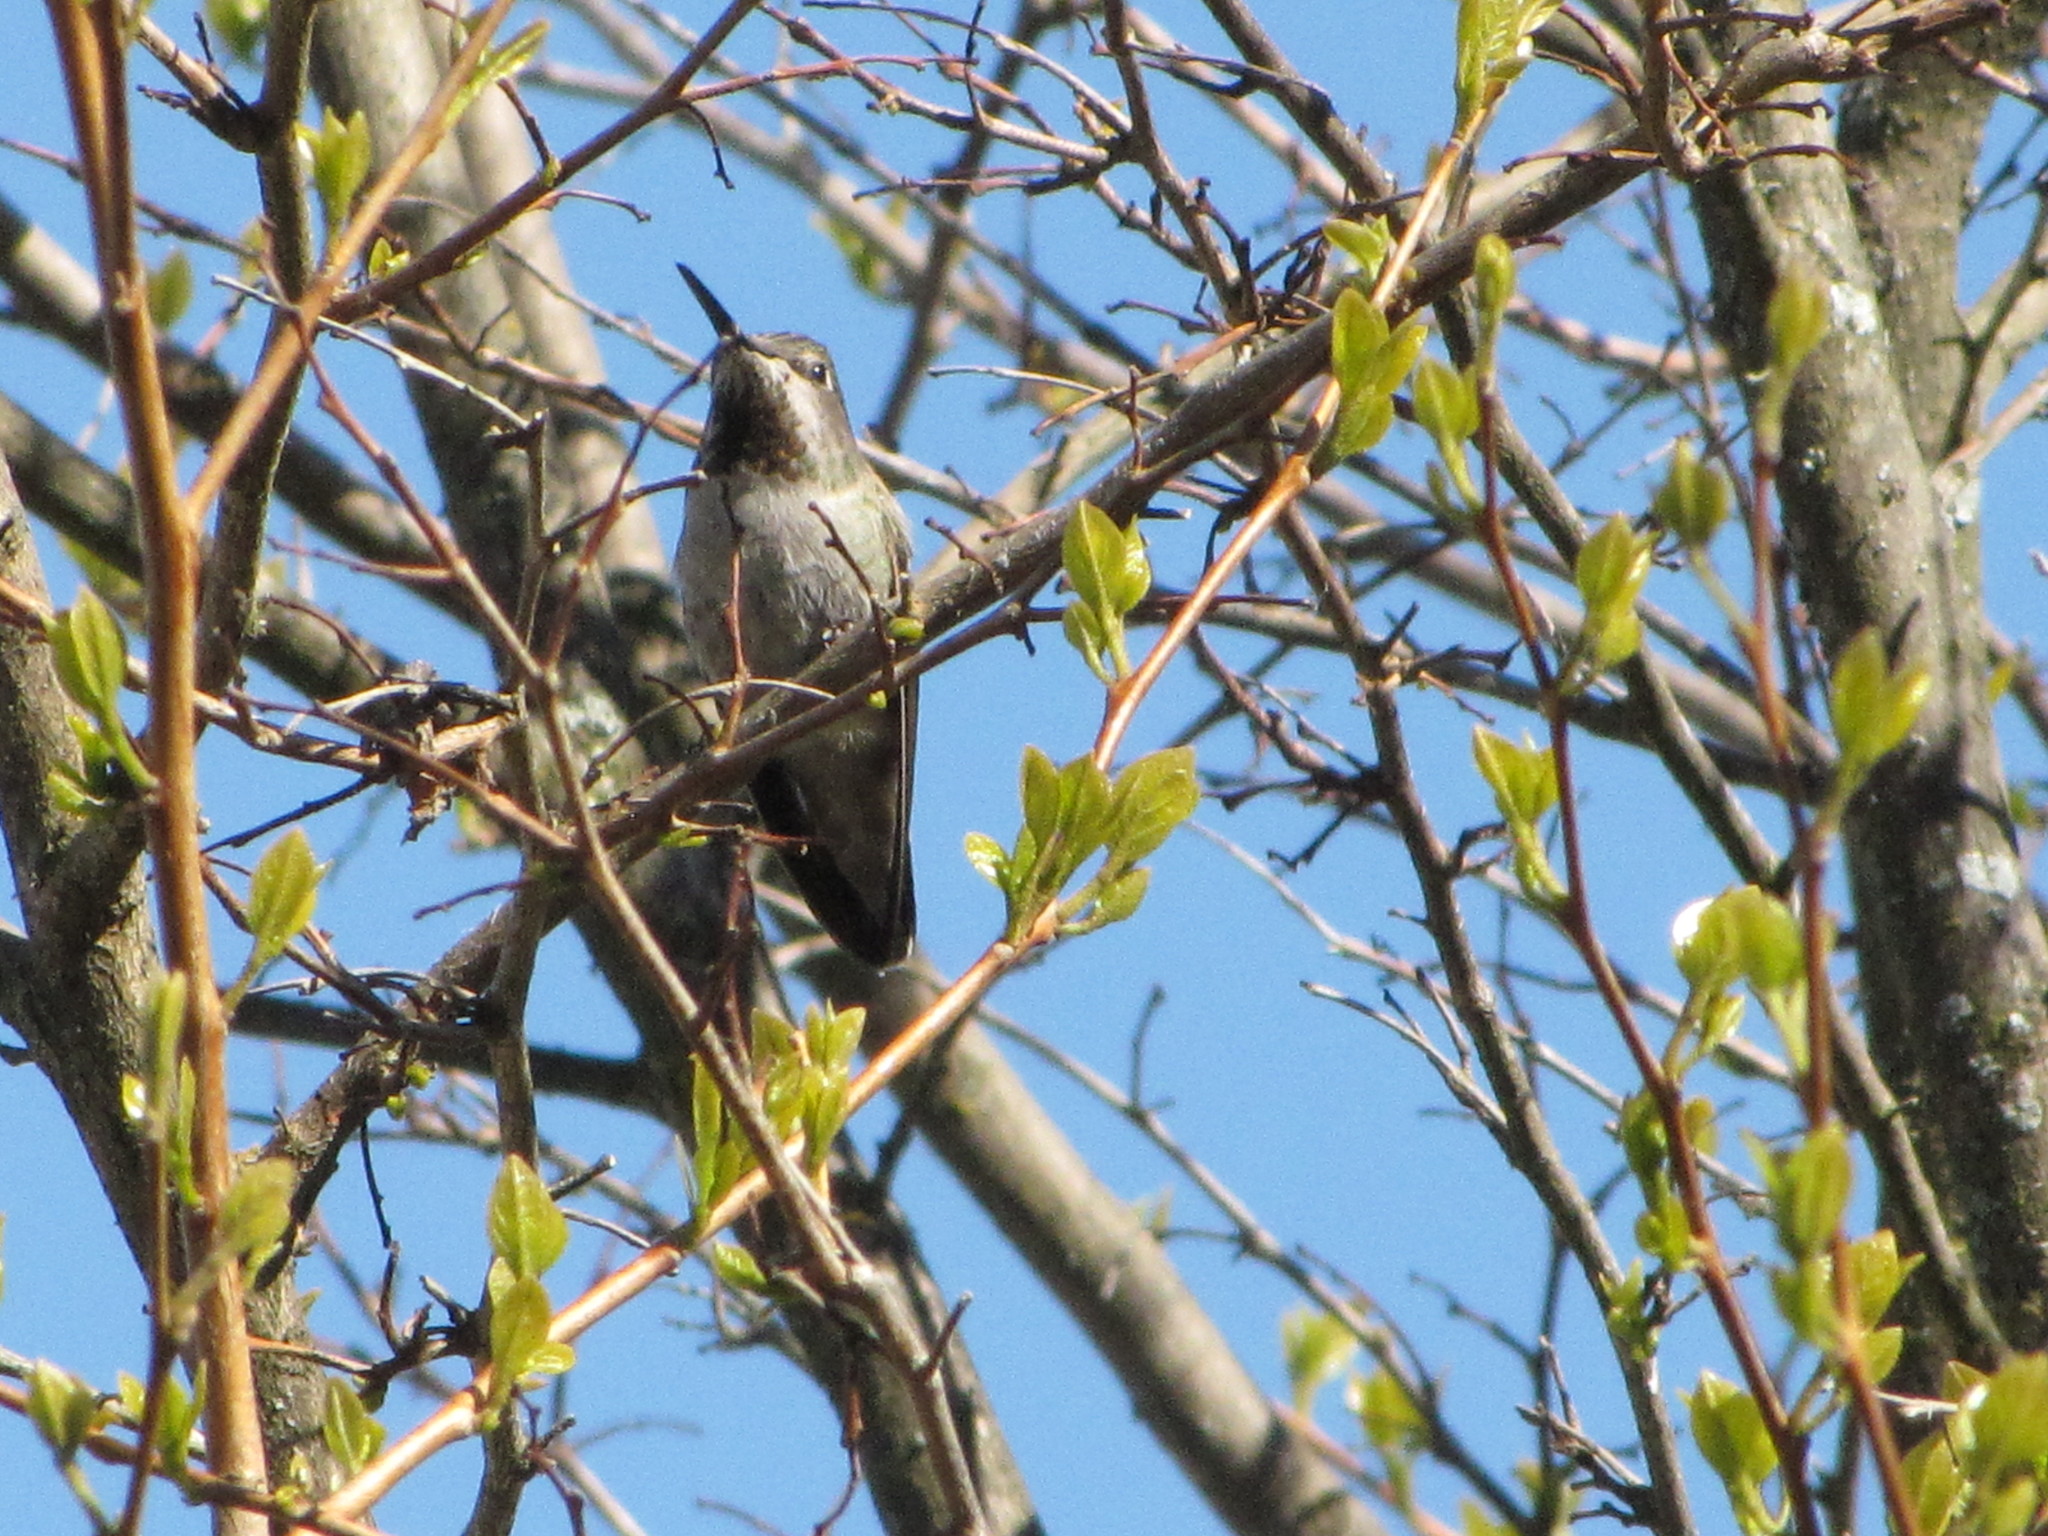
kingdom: Animalia
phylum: Chordata
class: Aves
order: Apodiformes
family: Trochilidae
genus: Calypte
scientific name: Calypte anna
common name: Anna's hummingbird
